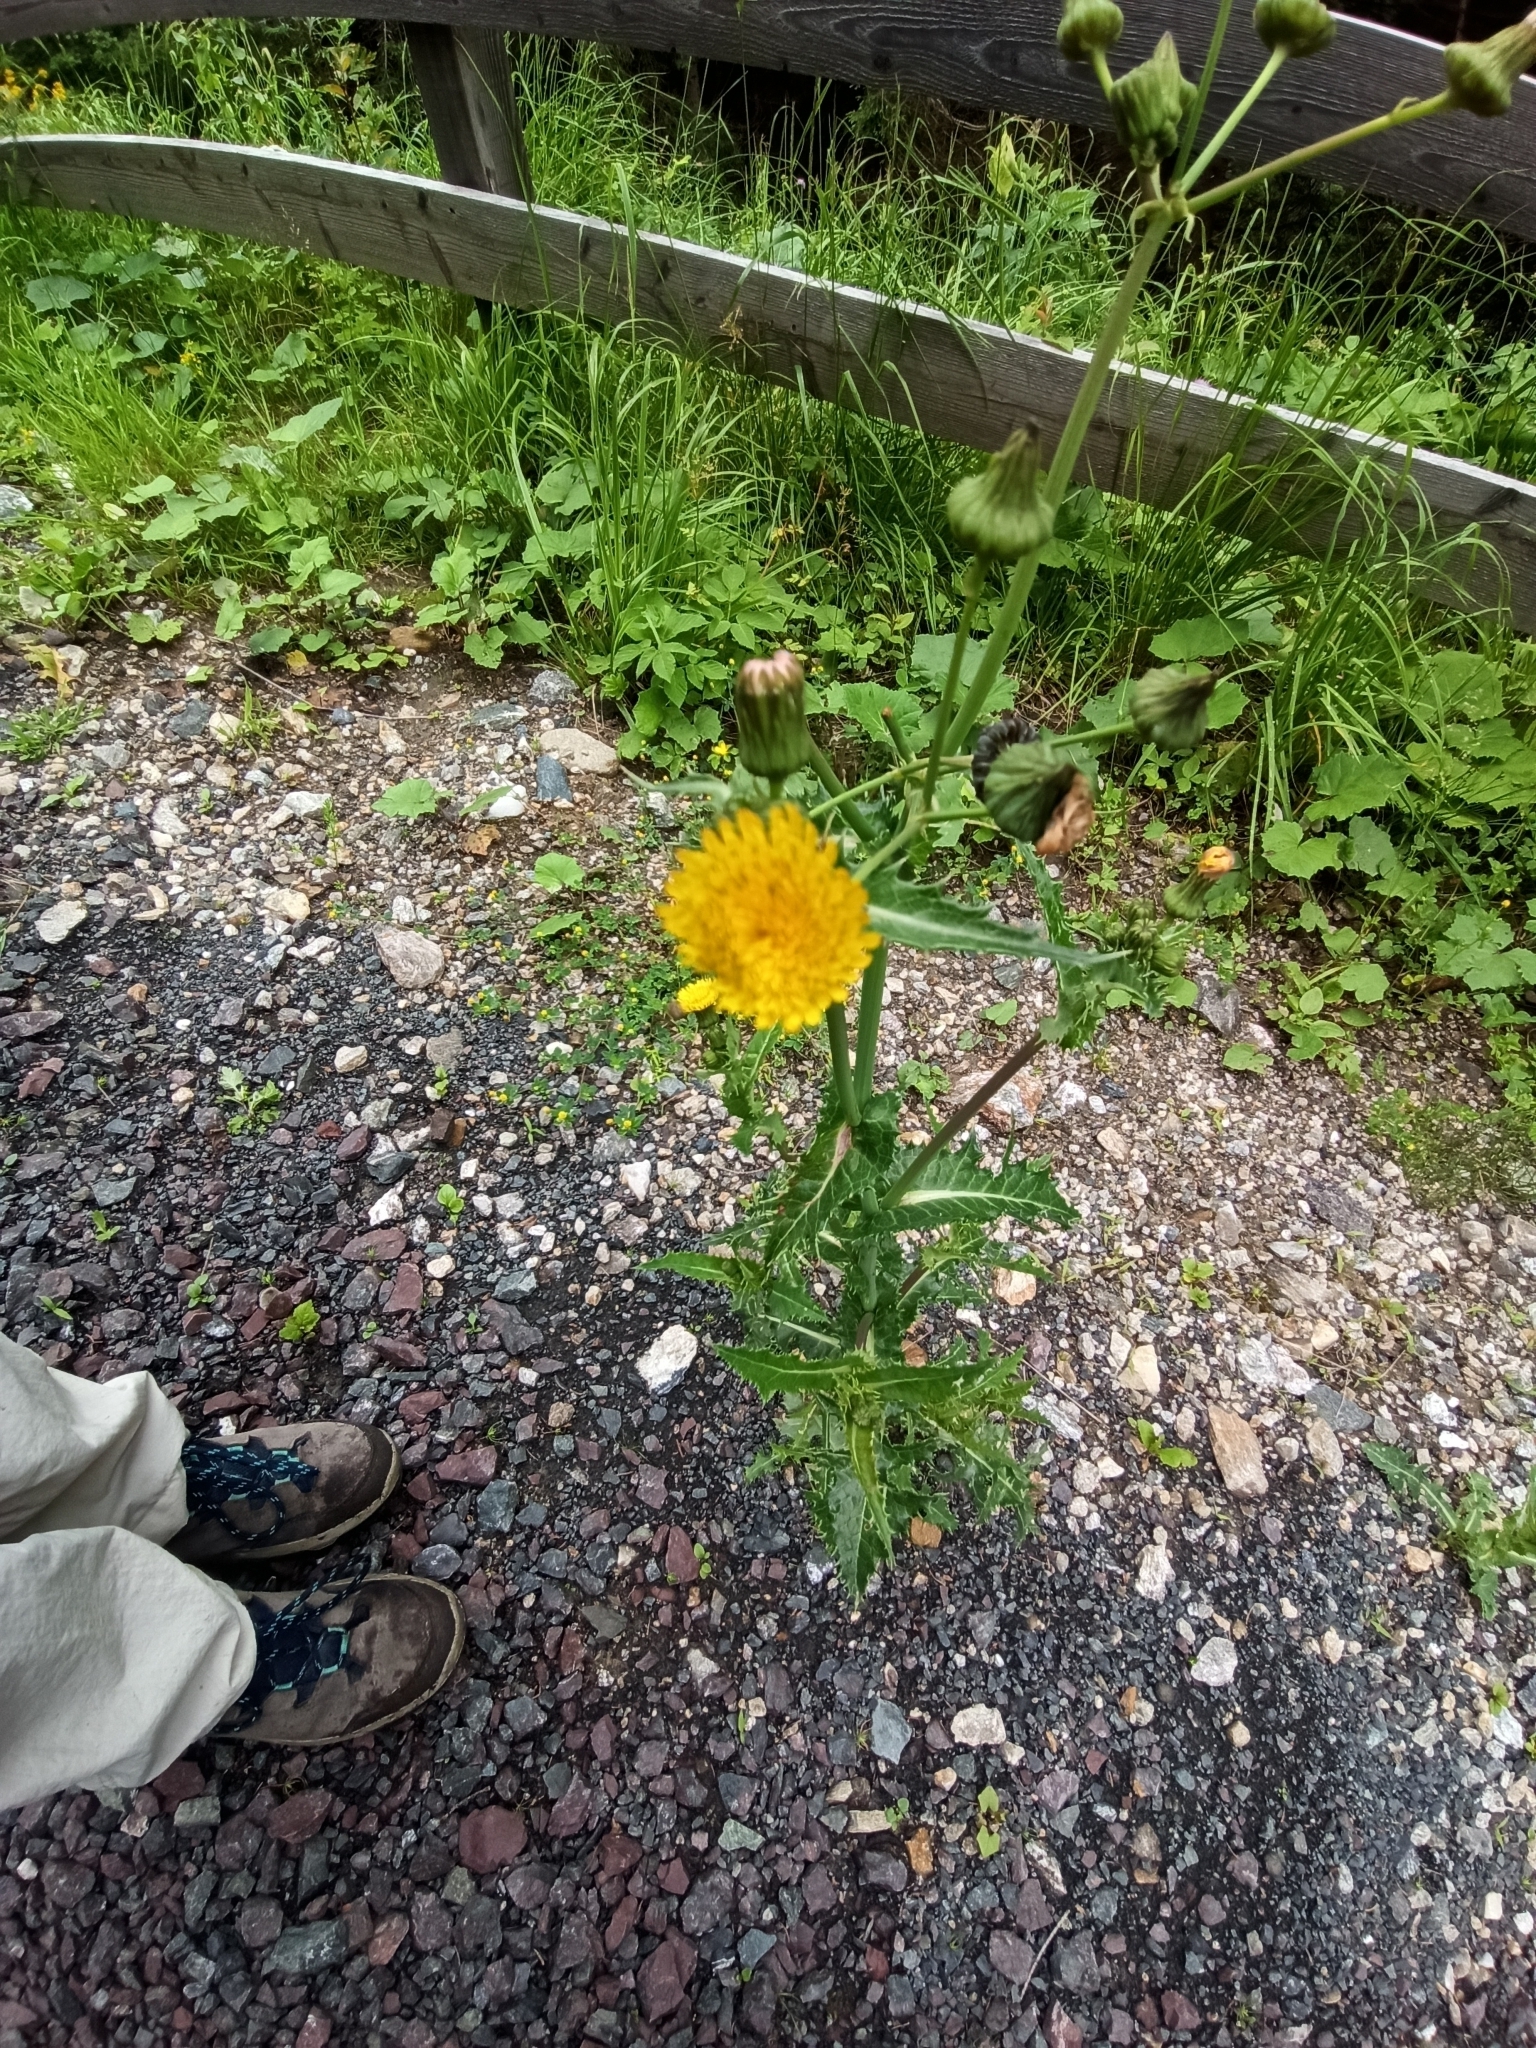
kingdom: Plantae
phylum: Tracheophyta
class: Magnoliopsida
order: Asterales
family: Asteraceae
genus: Sonchus
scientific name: Sonchus asper
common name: Prickly sow-thistle
